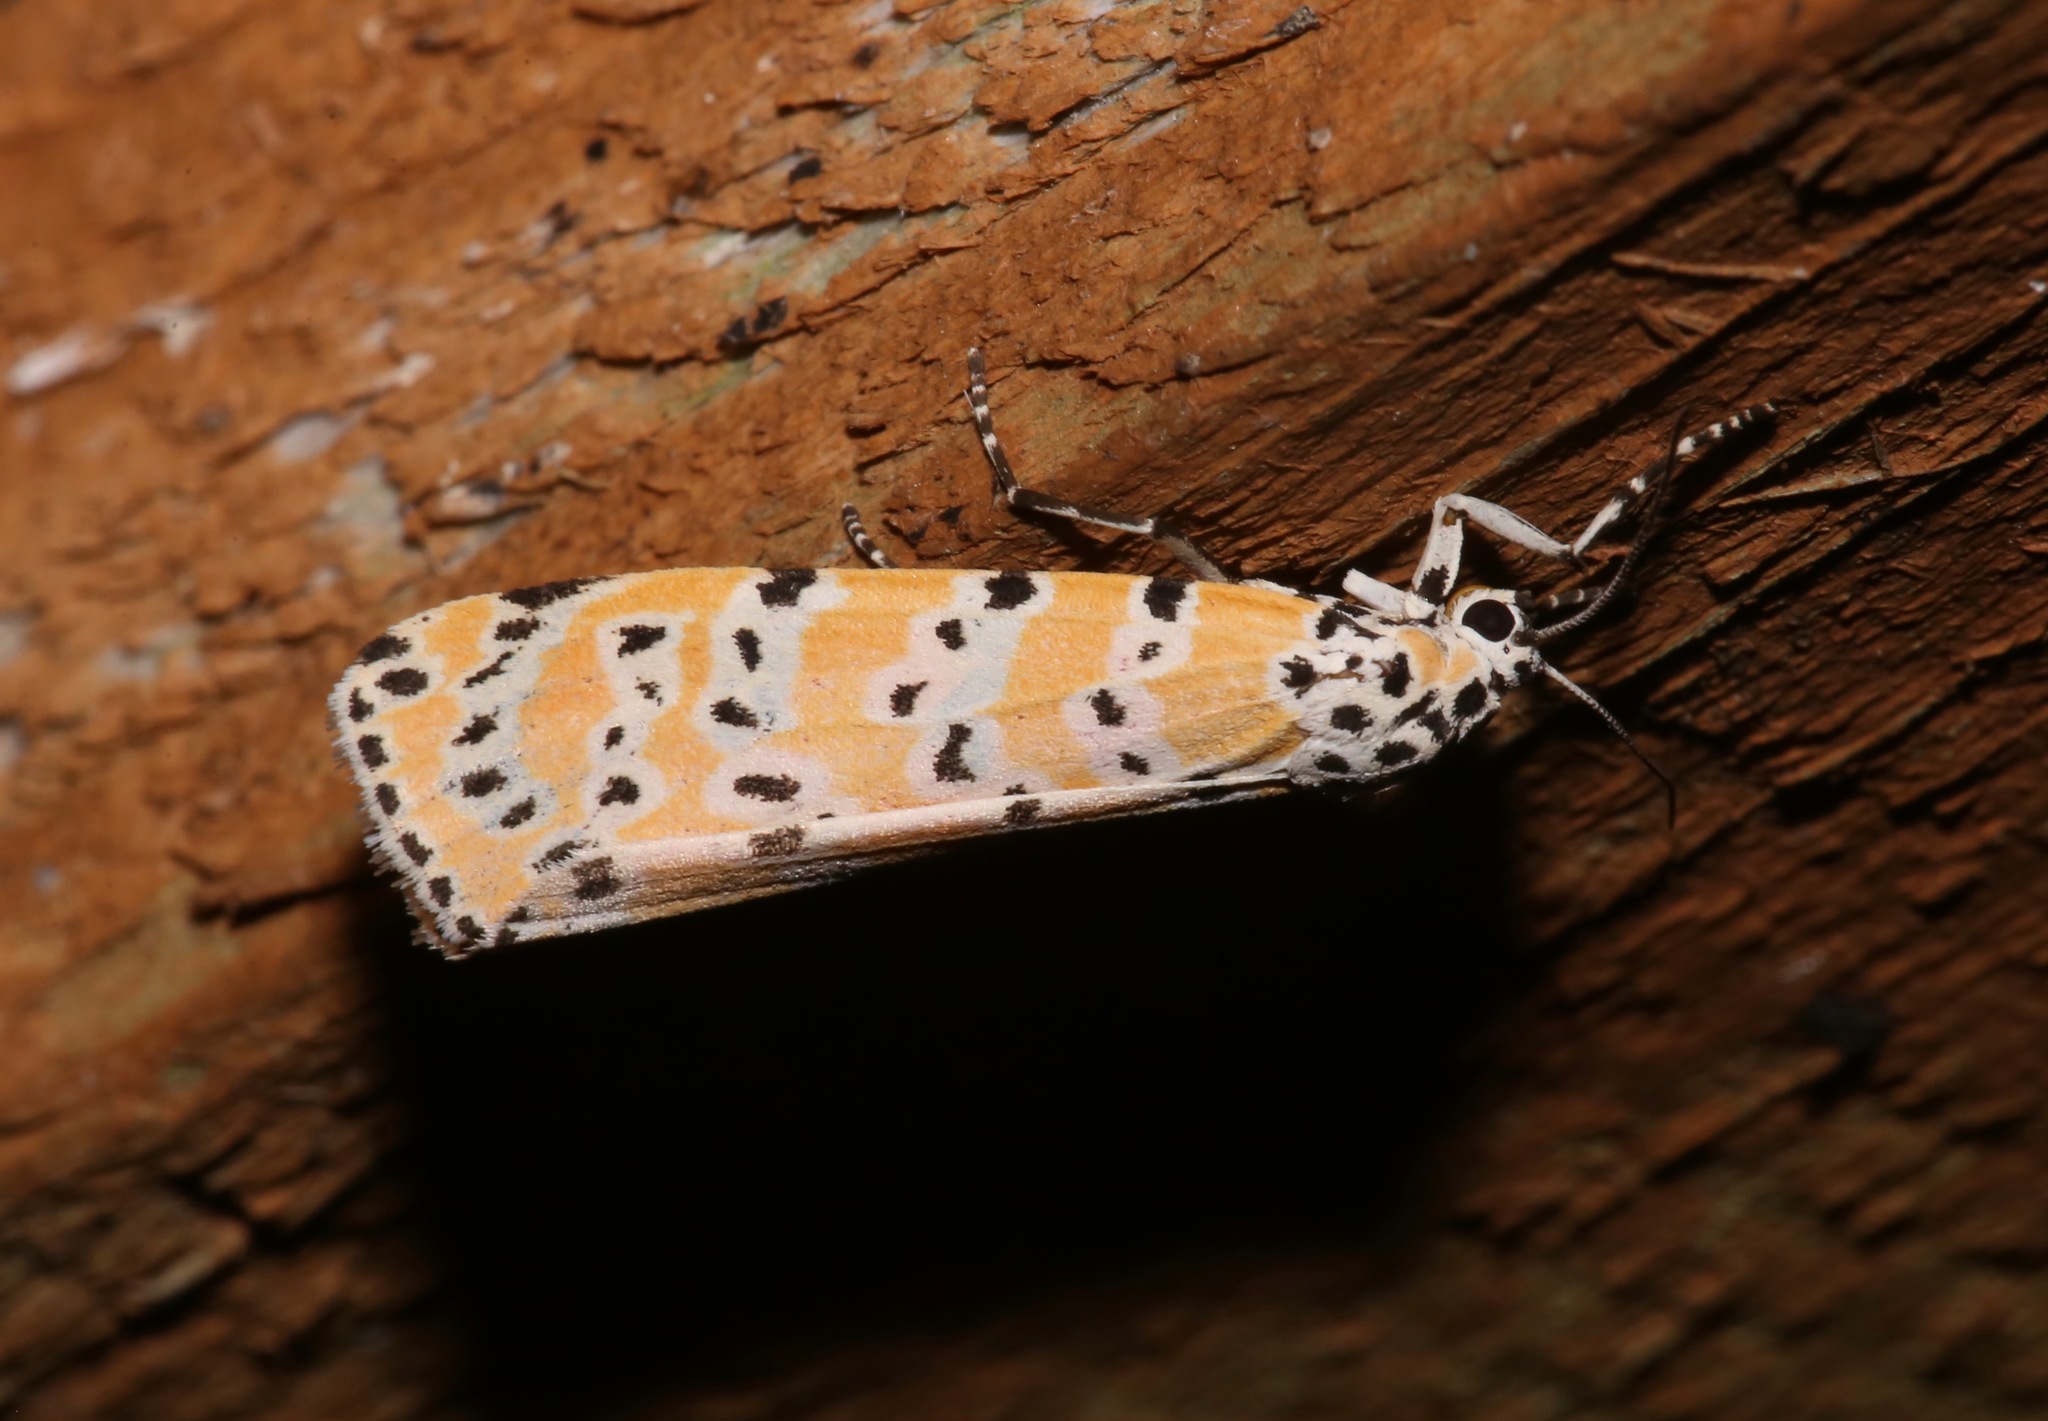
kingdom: Animalia
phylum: Arthropoda
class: Insecta
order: Lepidoptera
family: Erebidae
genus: Utetheisa
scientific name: Utetheisa ornatrix
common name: Beautiful utetheisa
